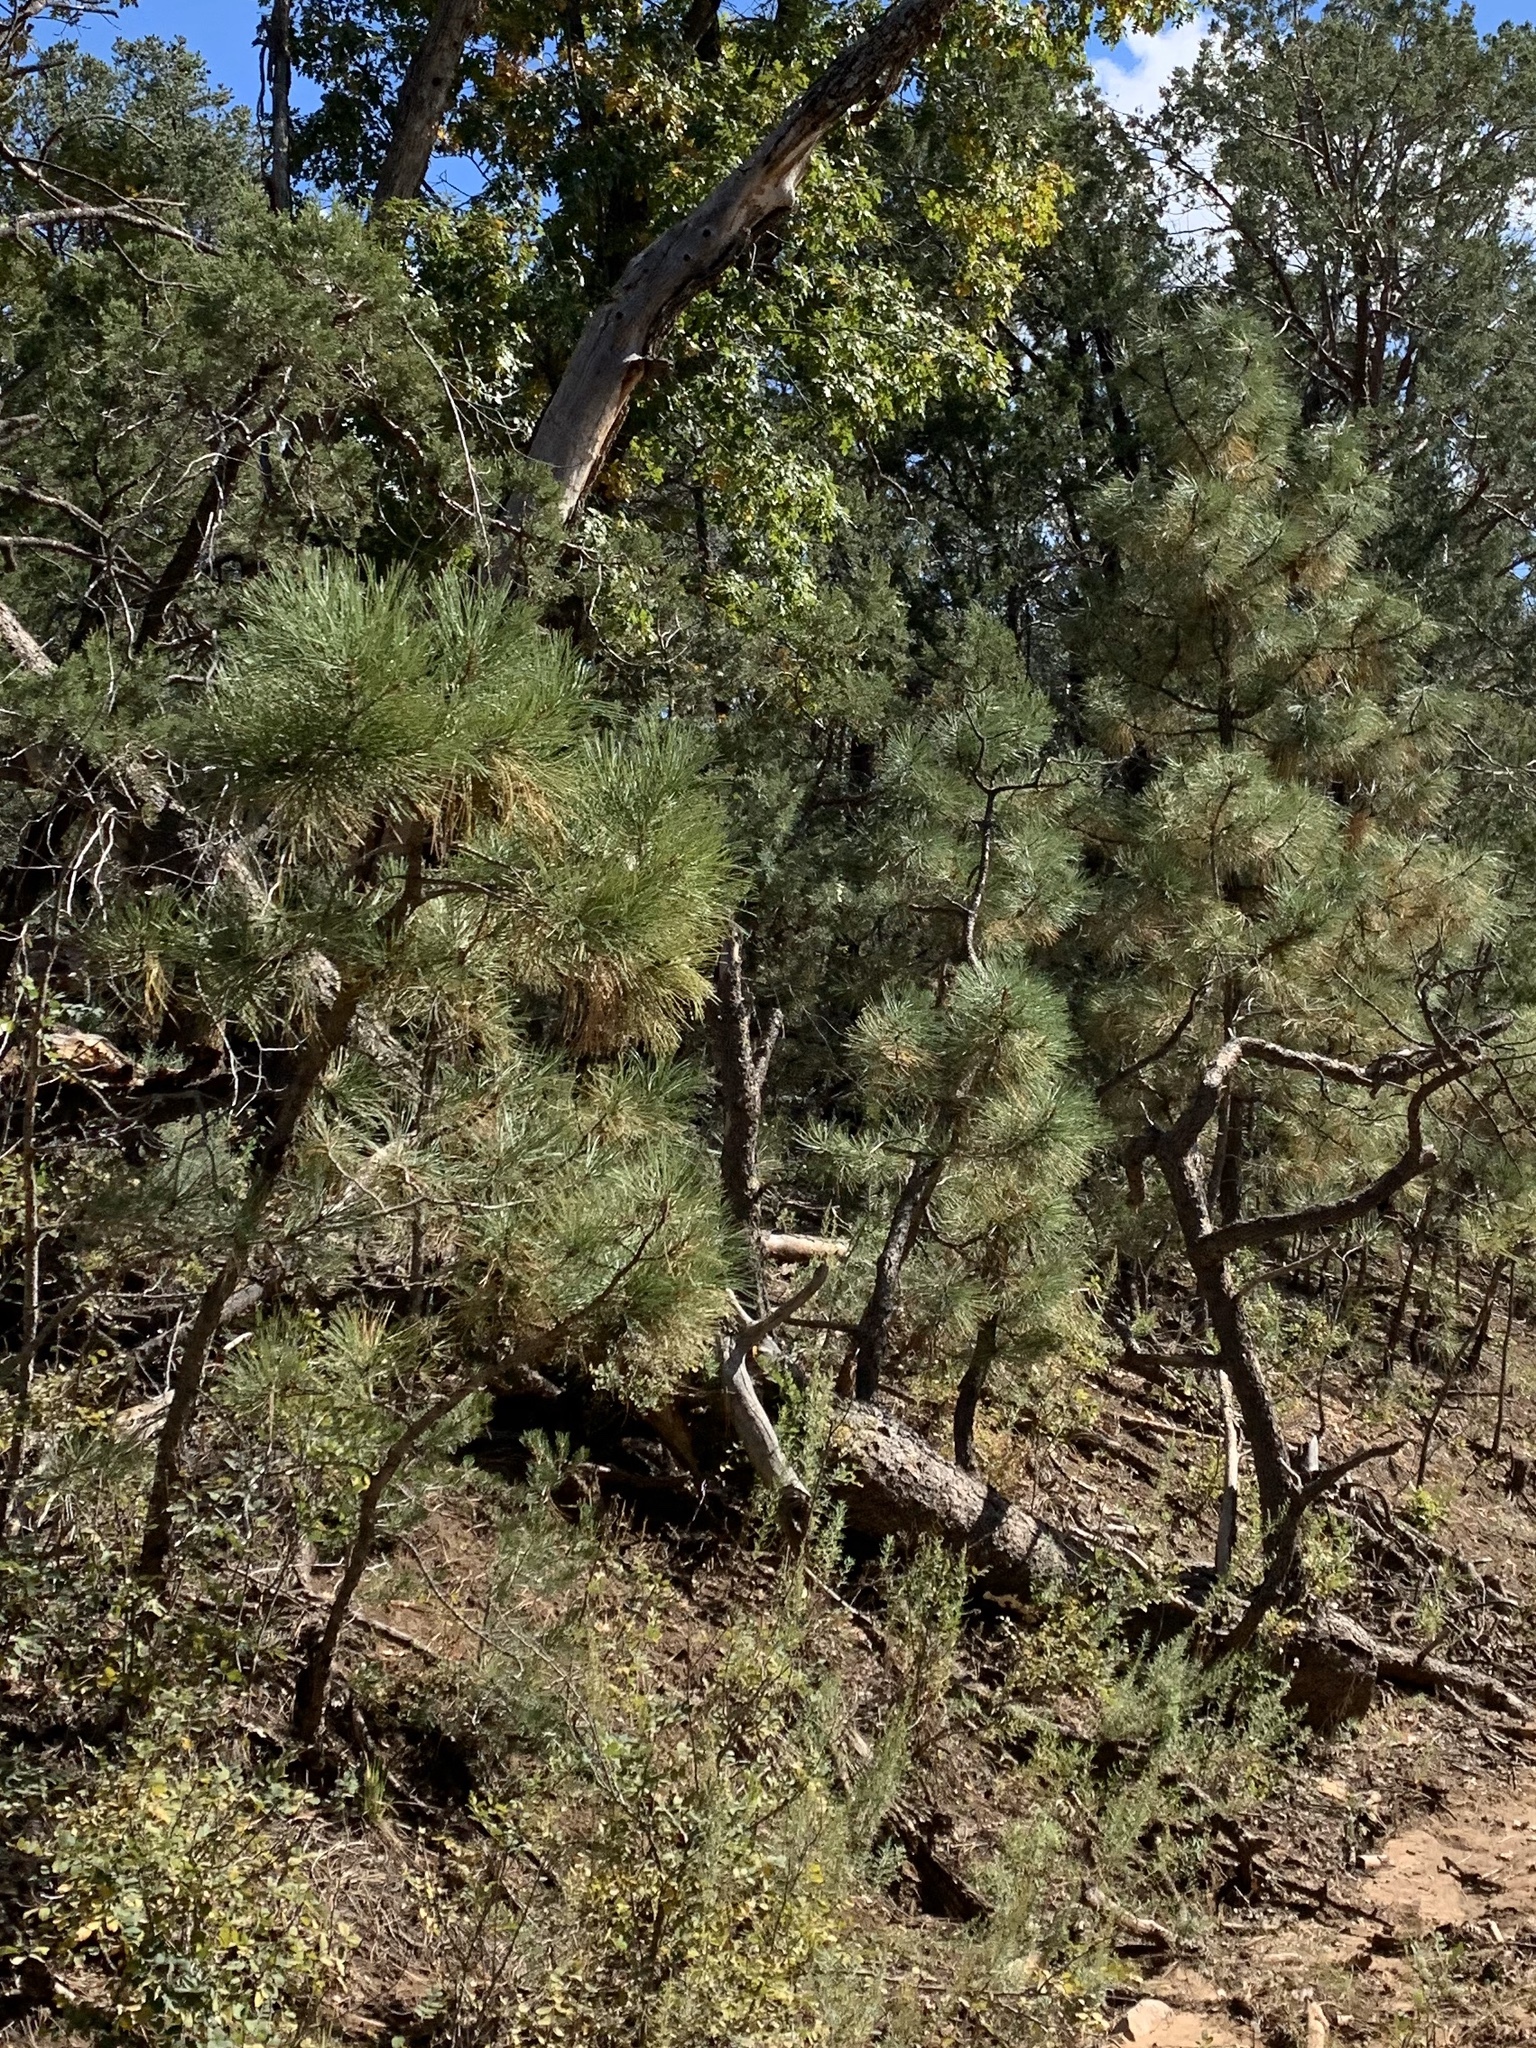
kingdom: Plantae
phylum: Tracheophyta
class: Pinopsida
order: Pinales
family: Pinaceae
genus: Pinus
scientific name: Pinus ponderosa
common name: Western yellow-pine
